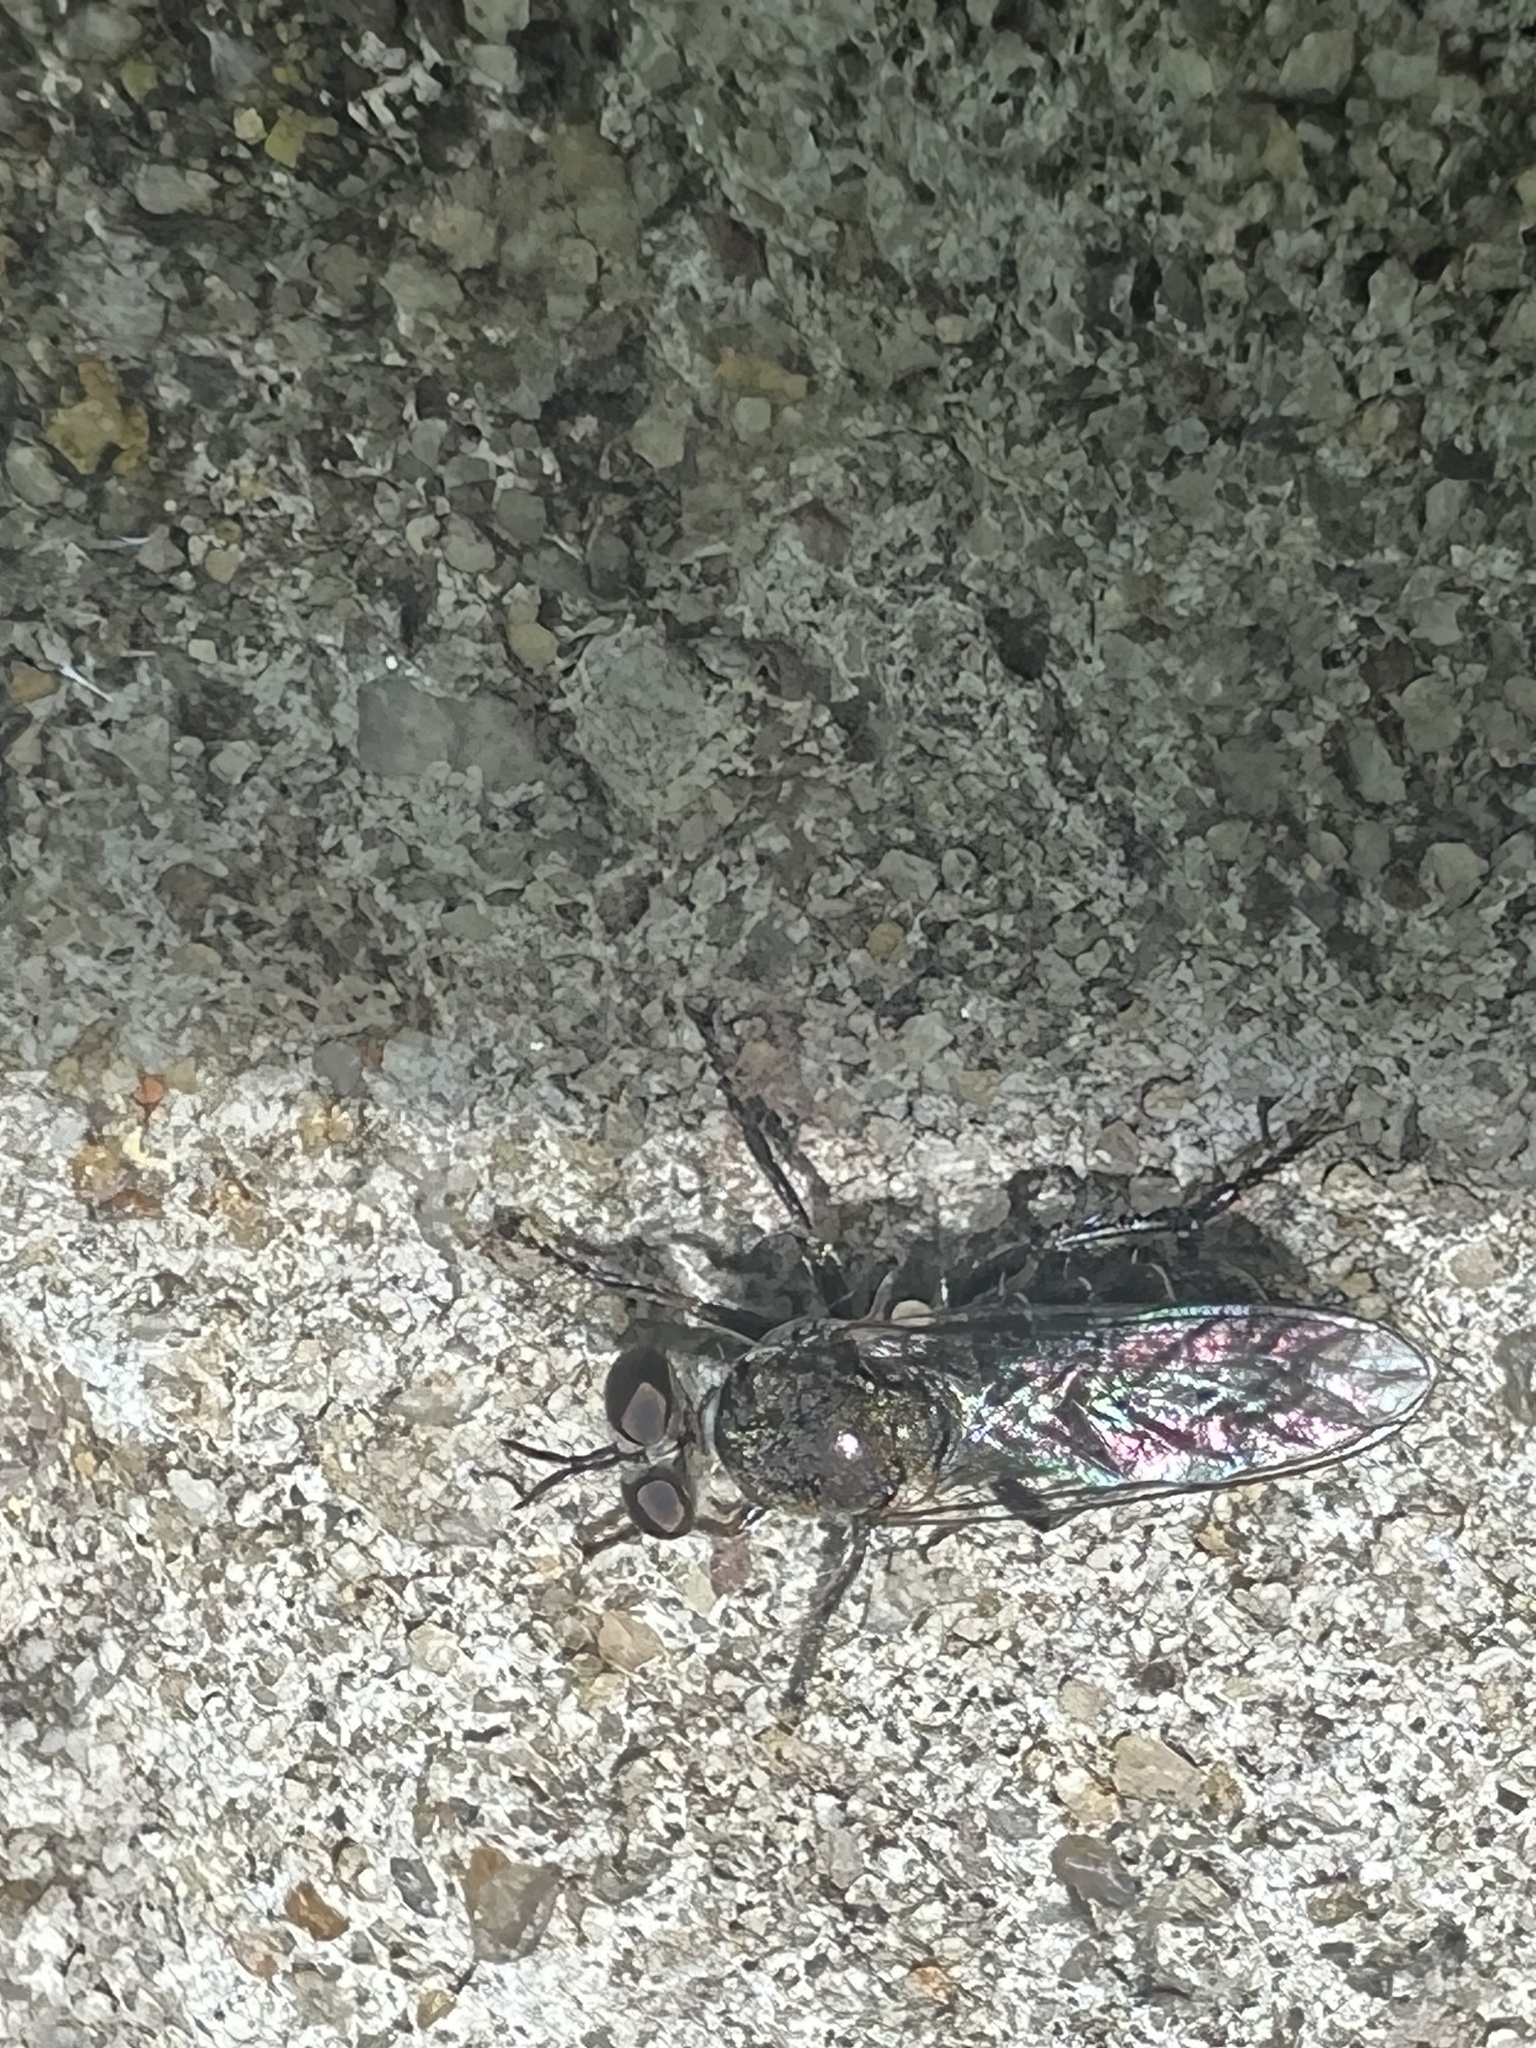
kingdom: Animalia
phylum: Arthropoda
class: Insecta
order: Diptera
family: Asilidae
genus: Atomosia
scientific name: Atomosia puella
